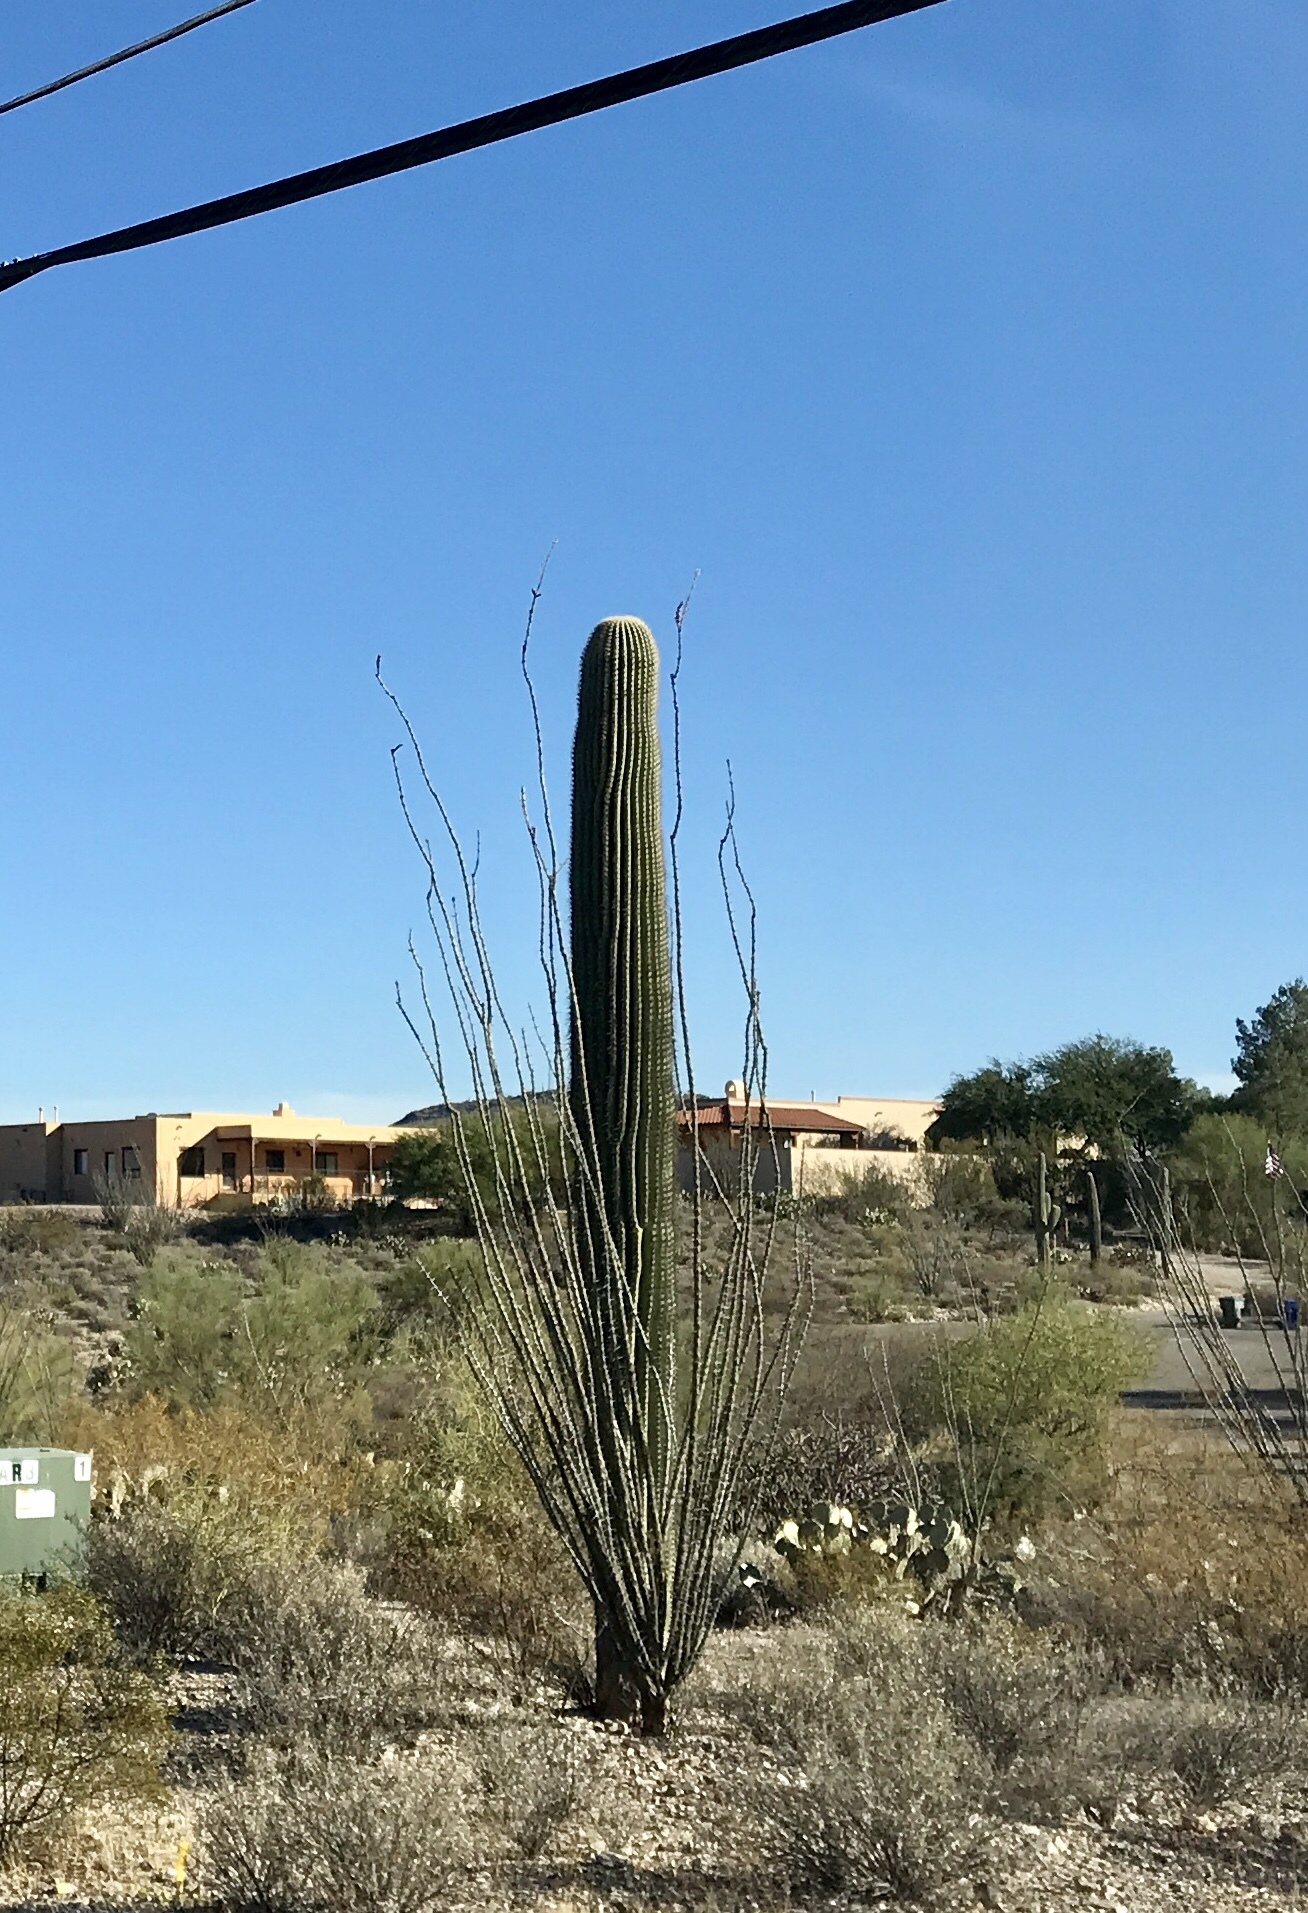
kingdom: Plantae
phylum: Tracheophyta
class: Magnoliopsida
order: Ericales
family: Fouquieriaceae
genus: Fouquieria
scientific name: Fouquieria splendens
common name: Vine-cactus
